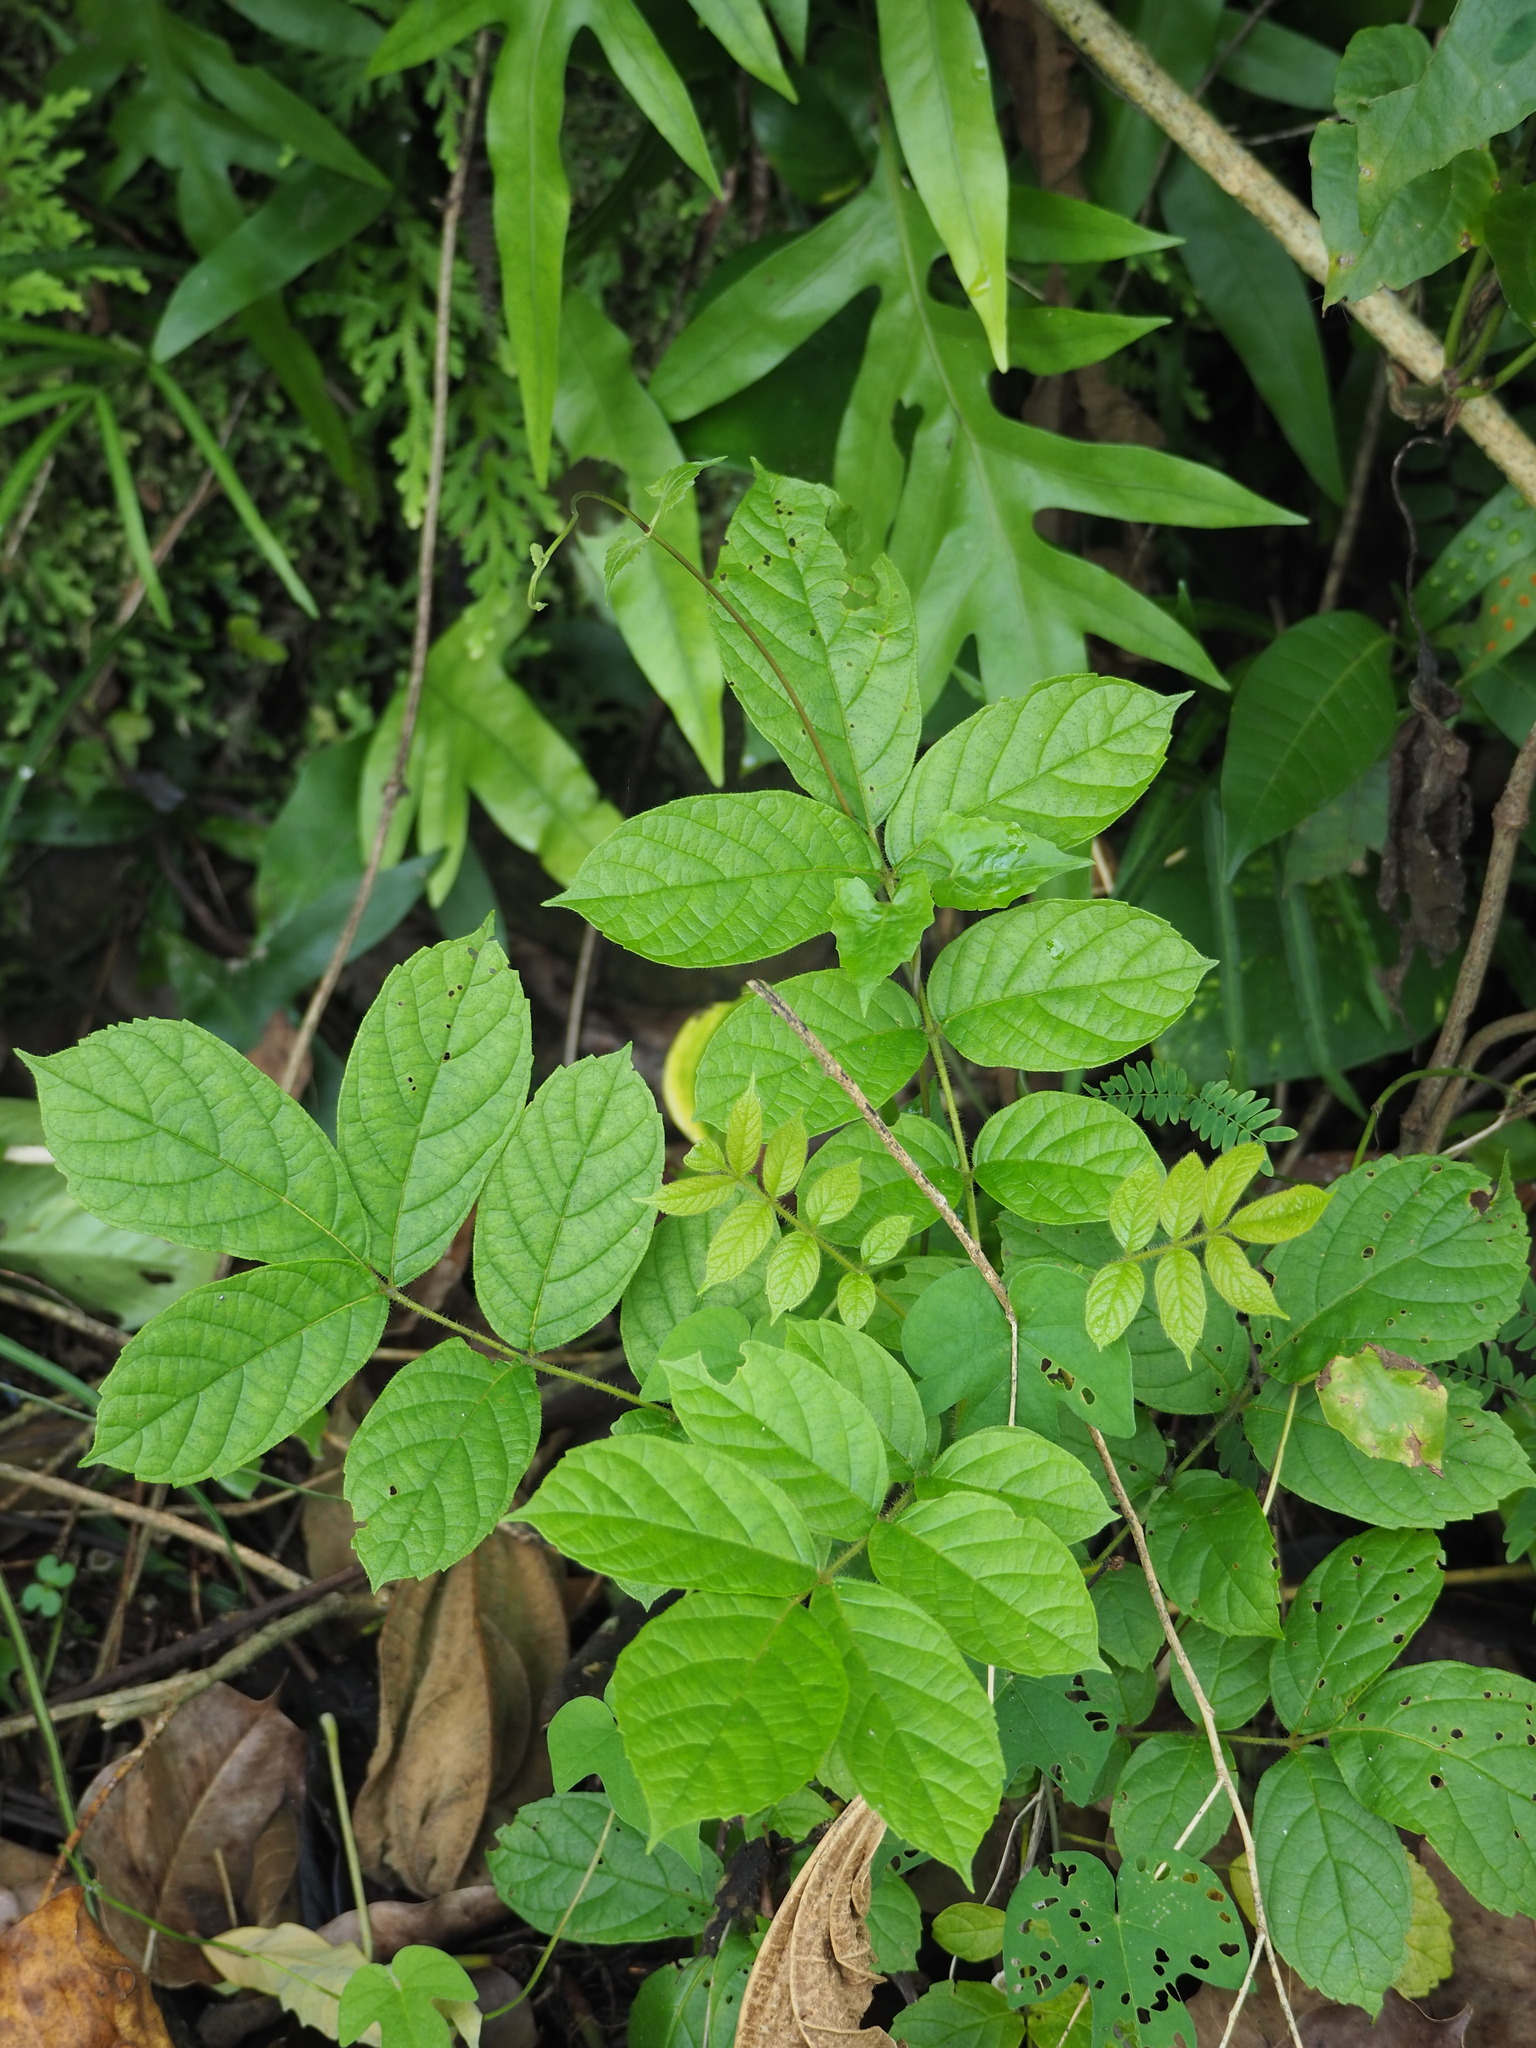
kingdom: Plantae
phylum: Tracheophyta
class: Magnoliopsida
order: Lamiales
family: Bignoniaceae
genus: Spathodea
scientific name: Spathodea campanulata
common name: African tuliptree
